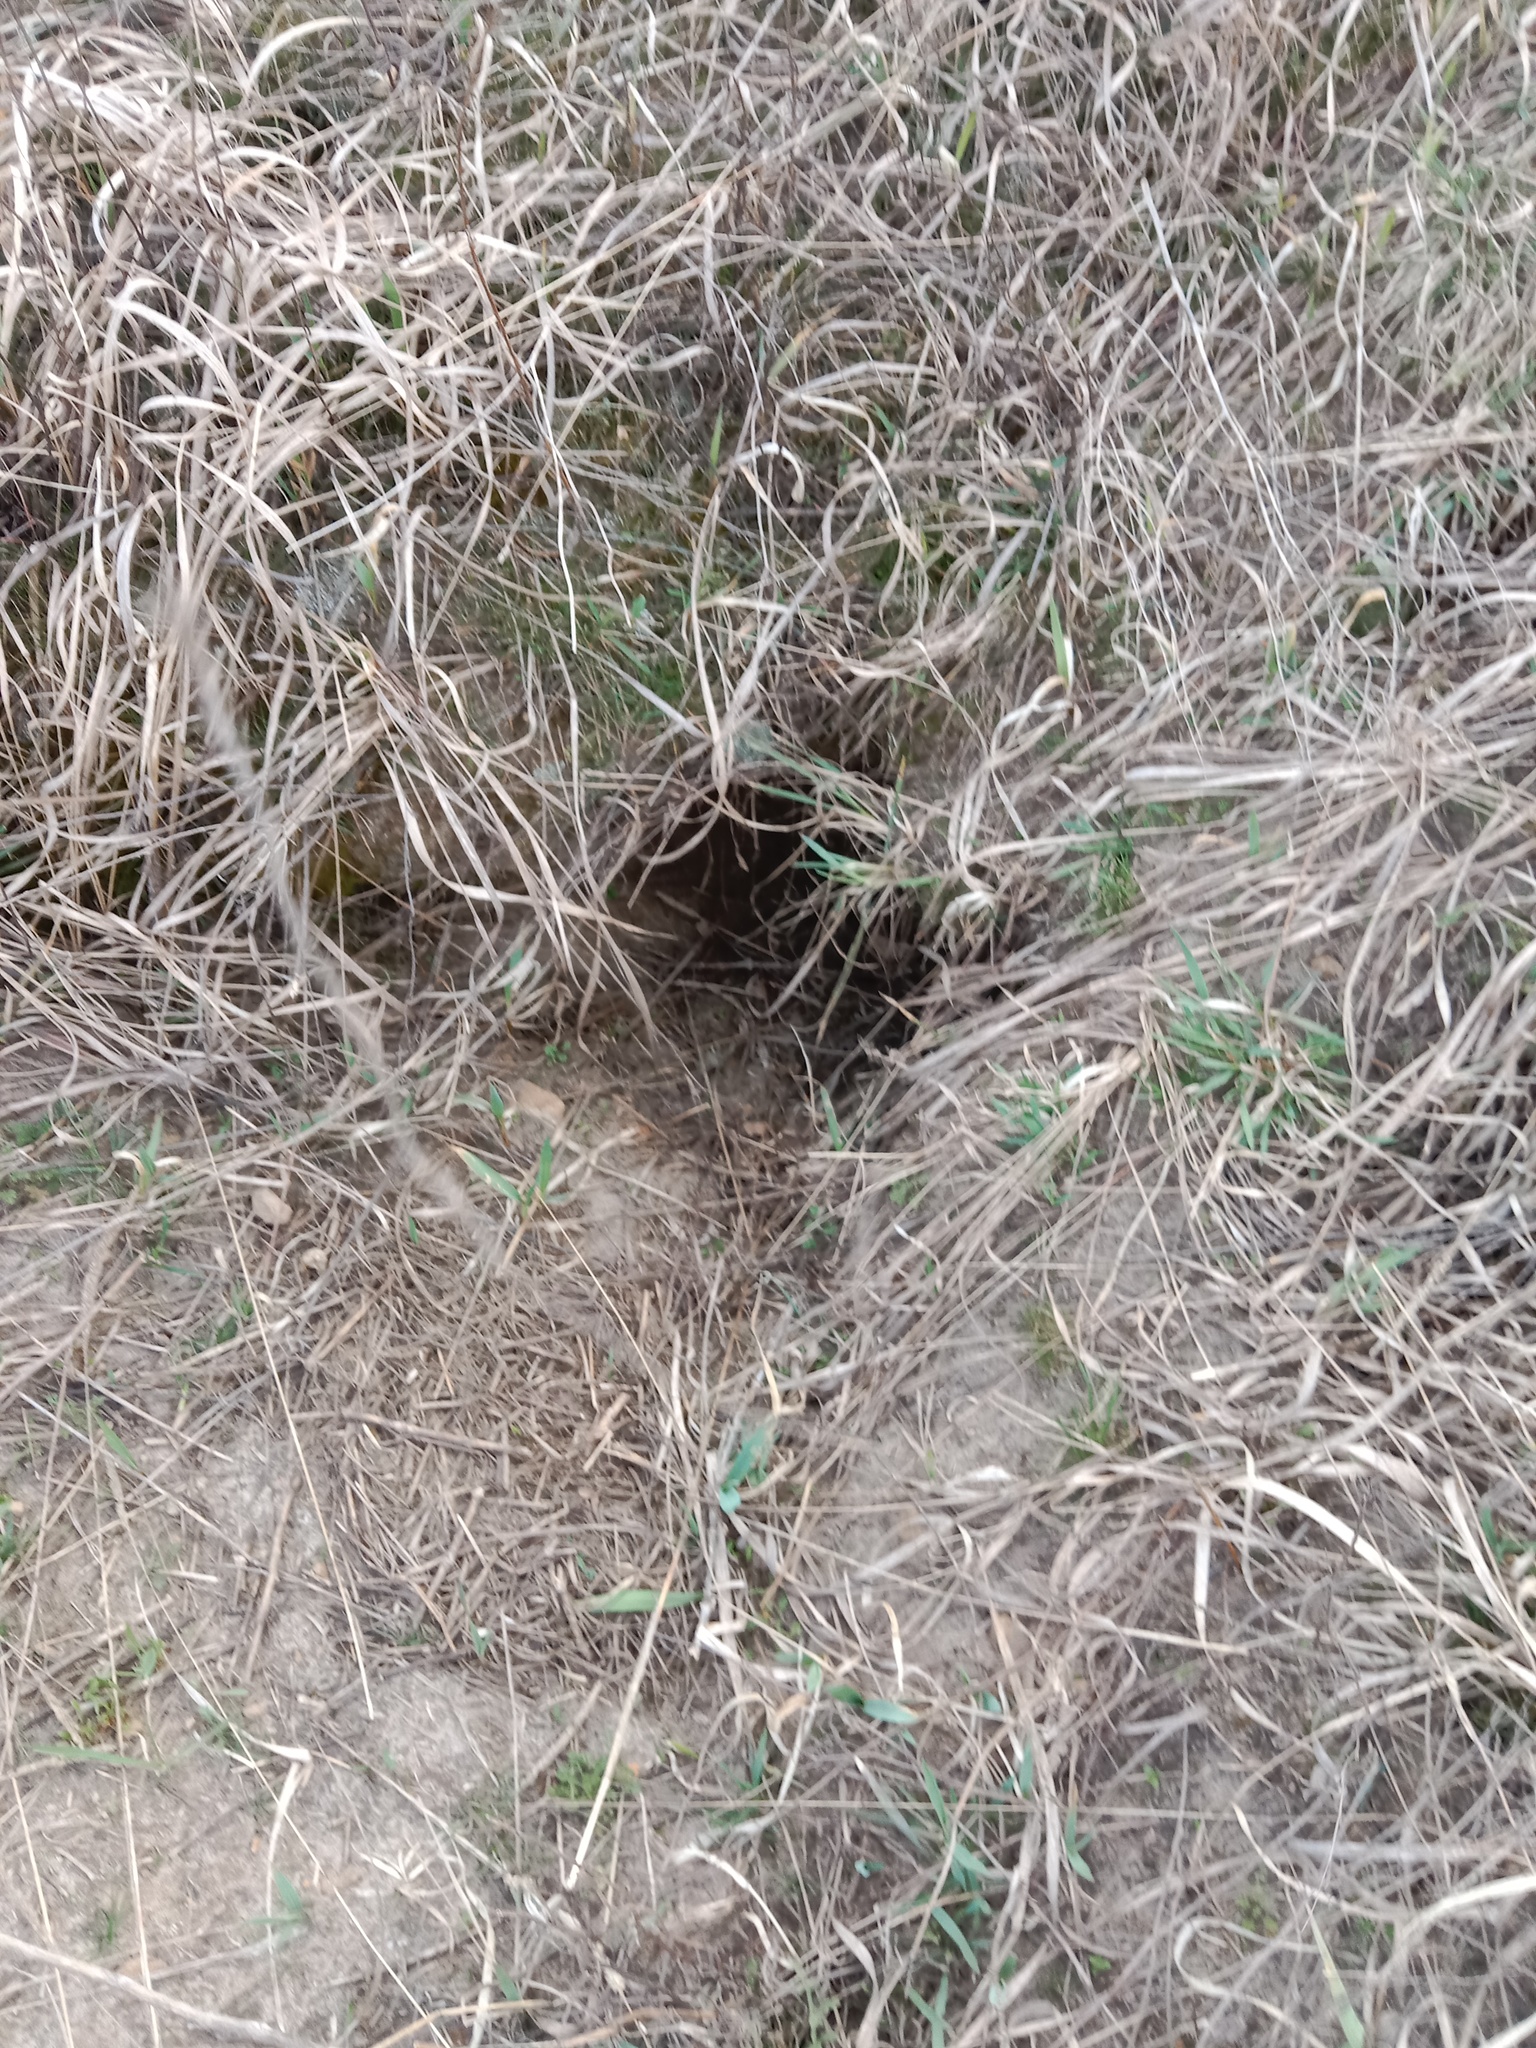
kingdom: Animalia
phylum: Chordata
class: Mammalia
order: Carnivora
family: Mustelidae
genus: Meles
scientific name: Meles meles
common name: Eurasian badger
